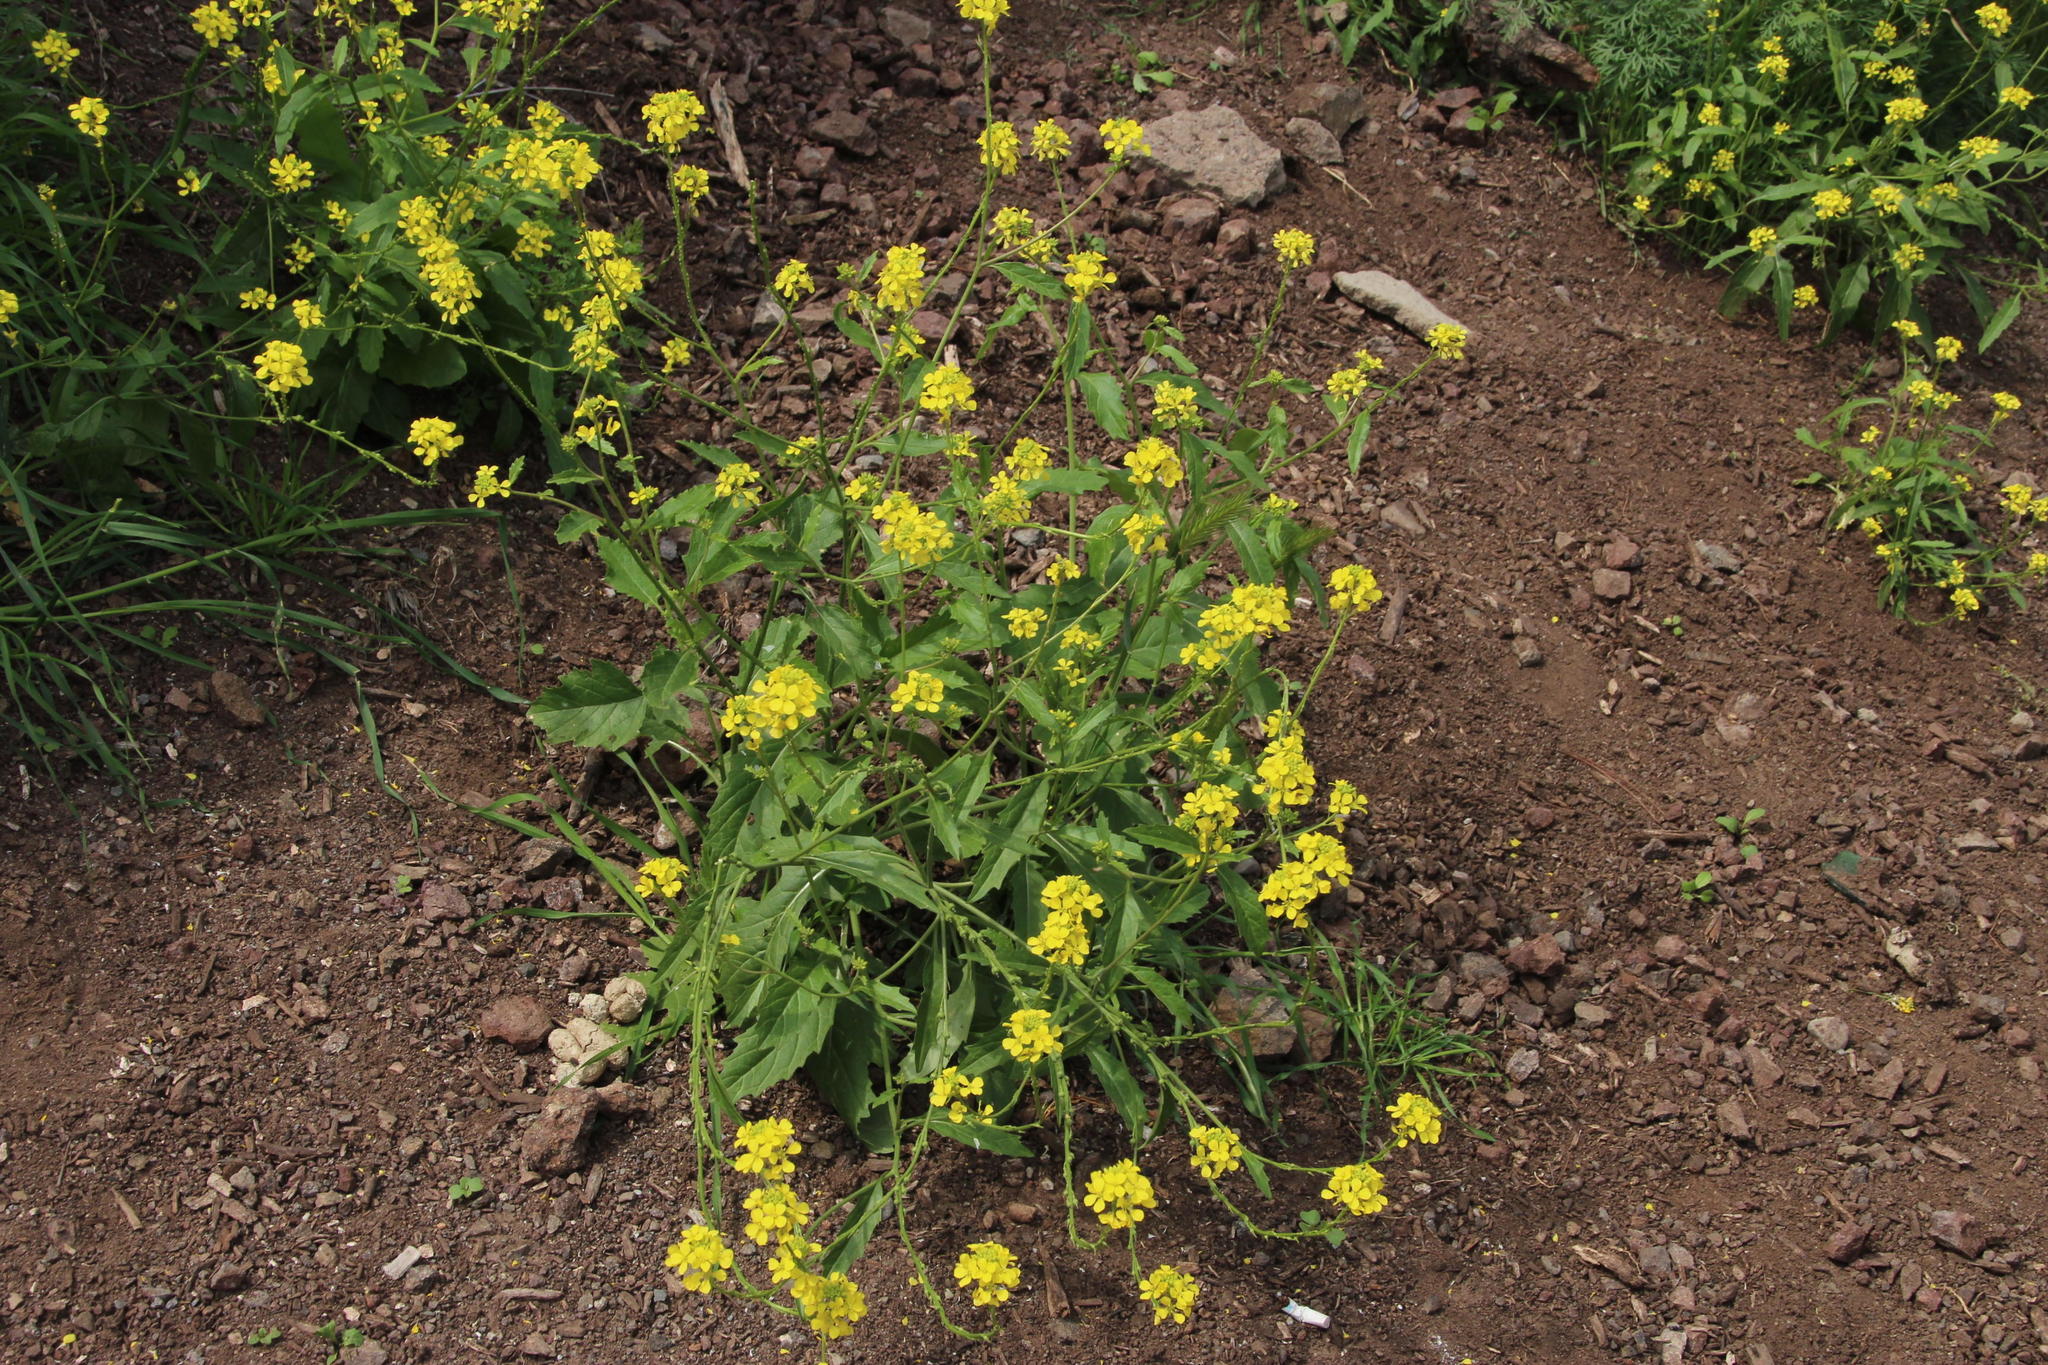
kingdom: Plantae
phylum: Tracheophyta
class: Magnoliopsida
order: Brassicales
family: Brassicaceae
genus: Rapistrum
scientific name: Rapistrum rugosum
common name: Annual bastardcabbage
